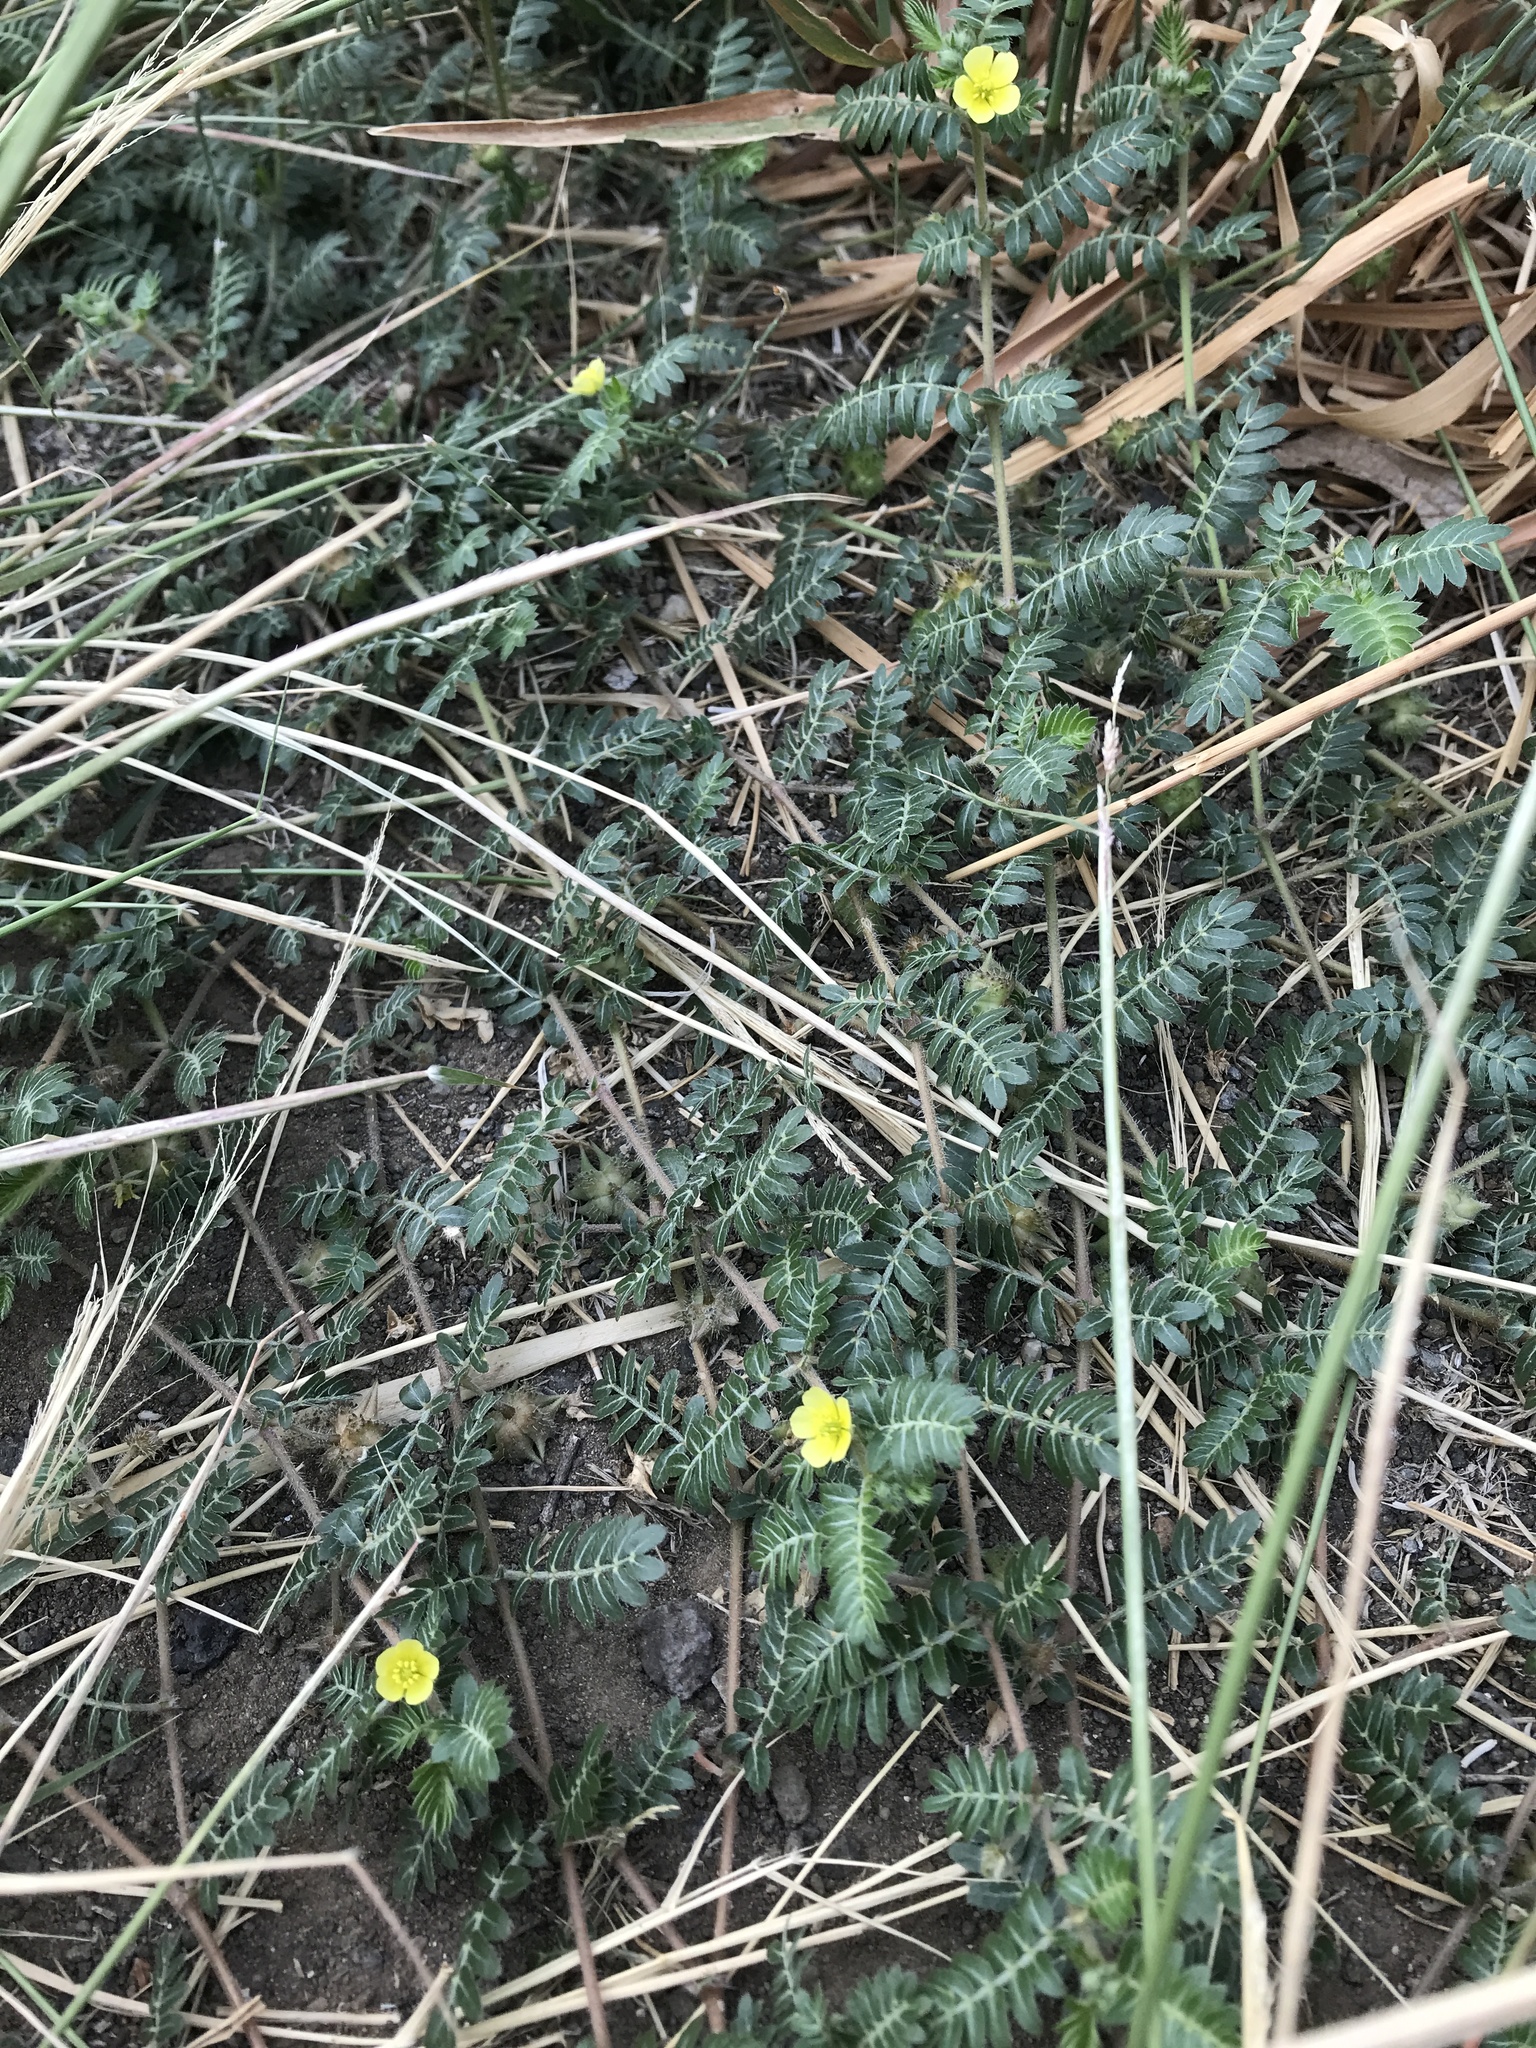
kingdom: Plantae
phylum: Tracheophyta
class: Magnoliopsida
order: Zygophyllales
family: Zygophyllaceae
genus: Tribulus
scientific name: Tribulus terrestris
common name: Puncturevine
